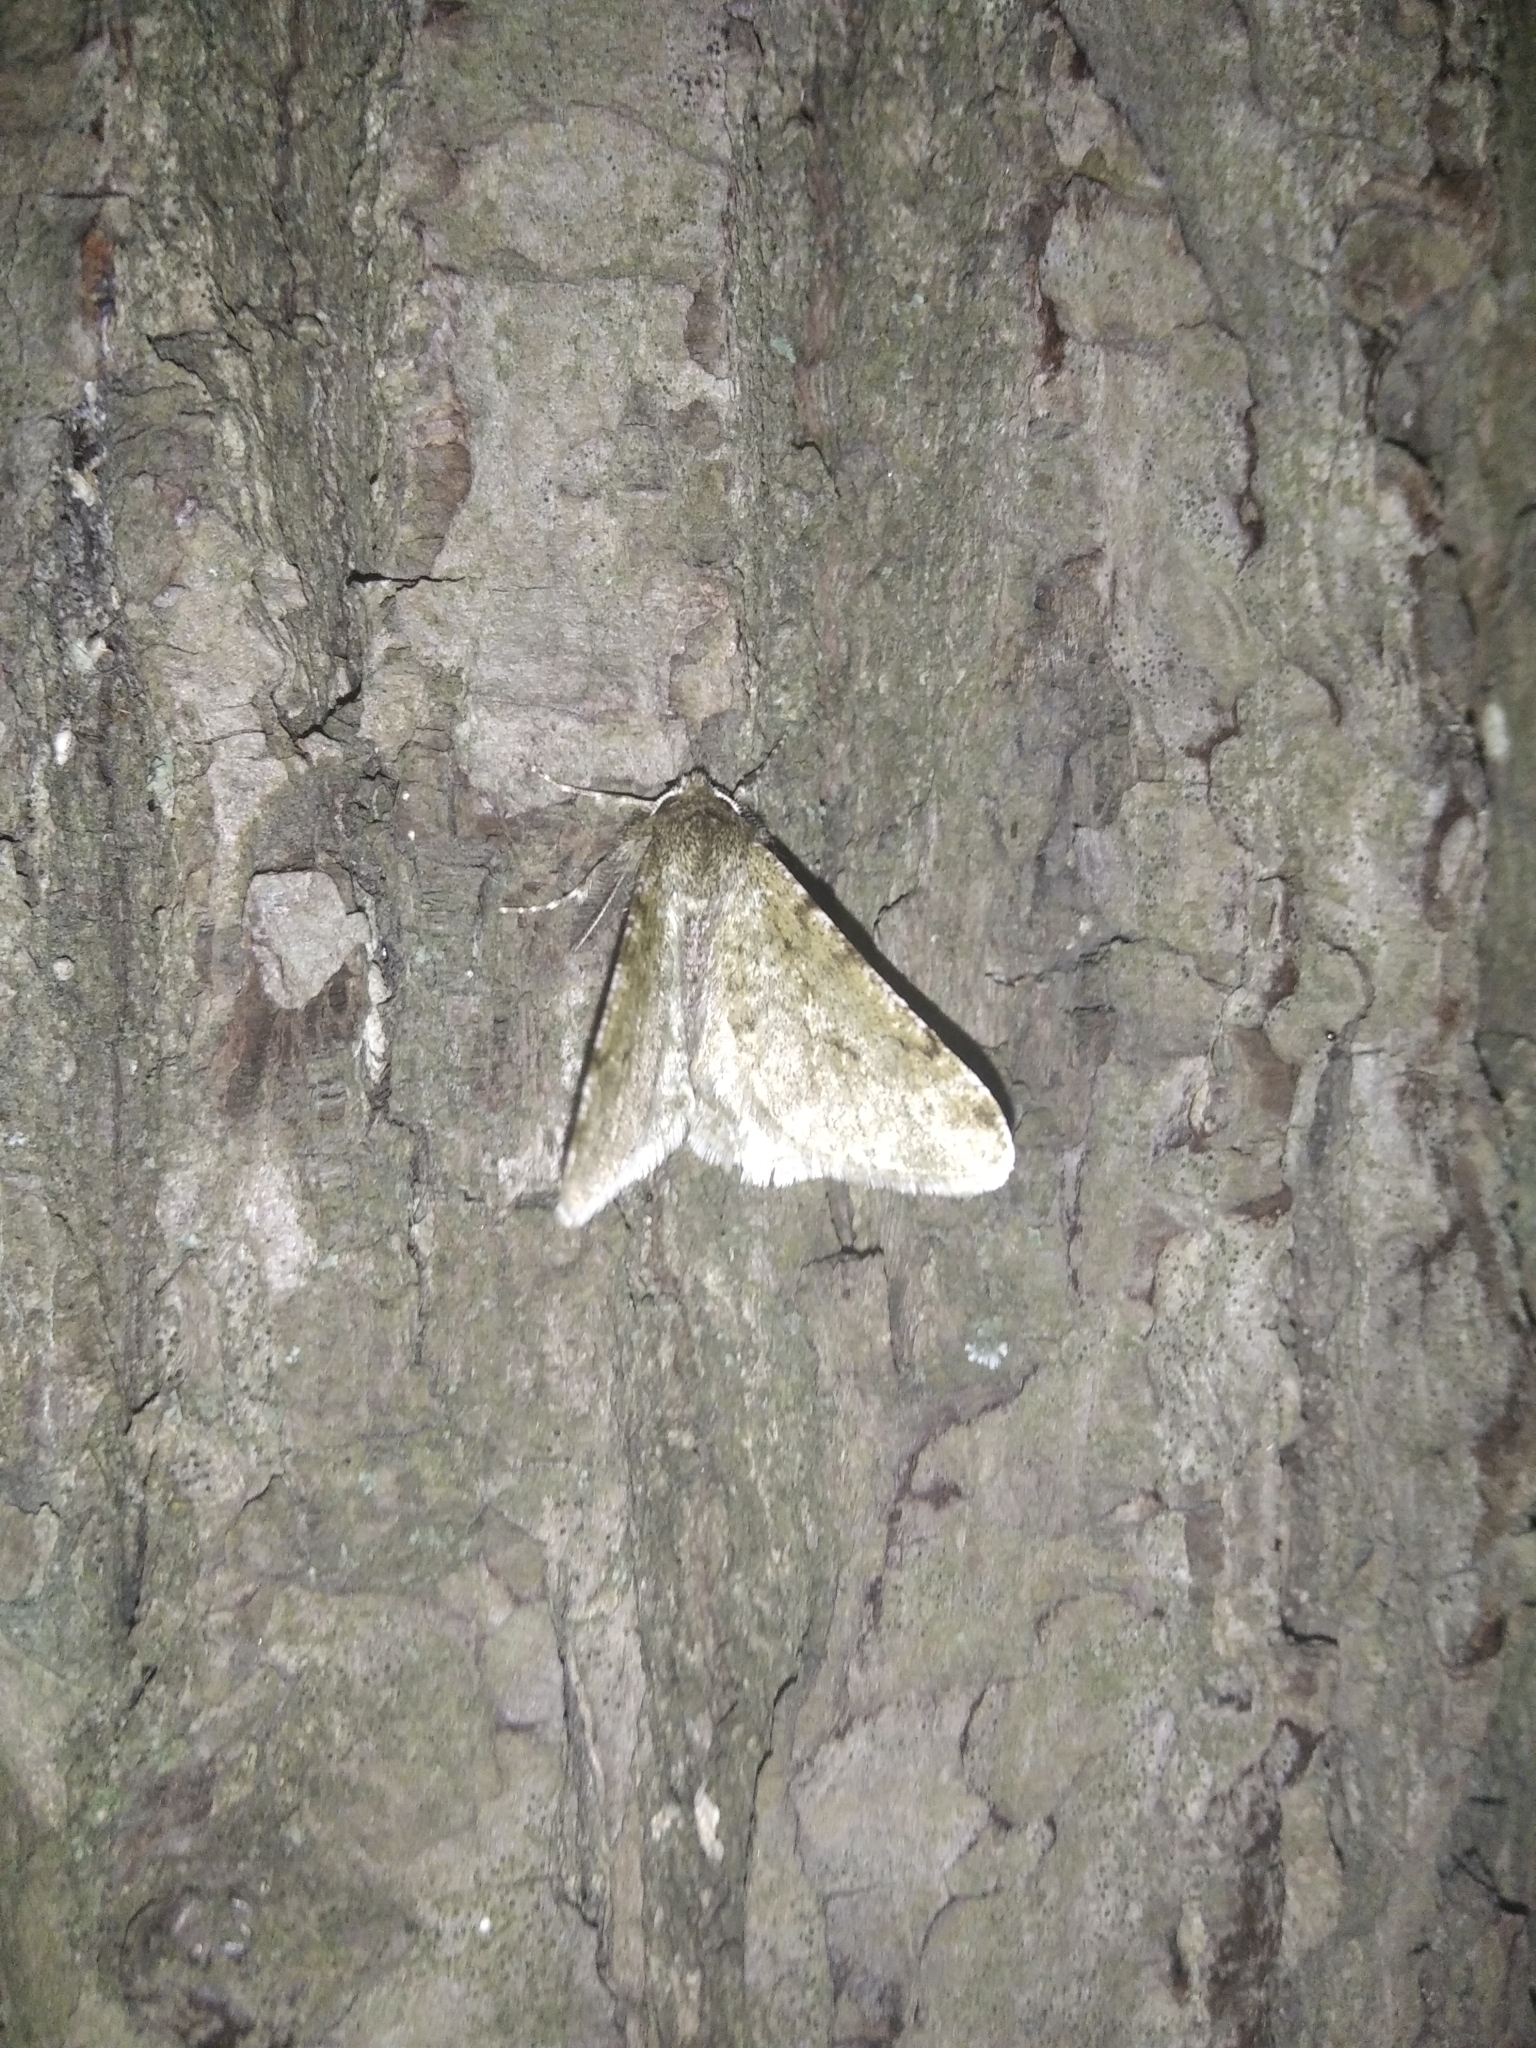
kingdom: Animalia
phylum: Arthropoda
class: Insecta
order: Lepidoptera
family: Geometridae
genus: Phigalia
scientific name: Phigalia pilosaria
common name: Pale brindled beauty
